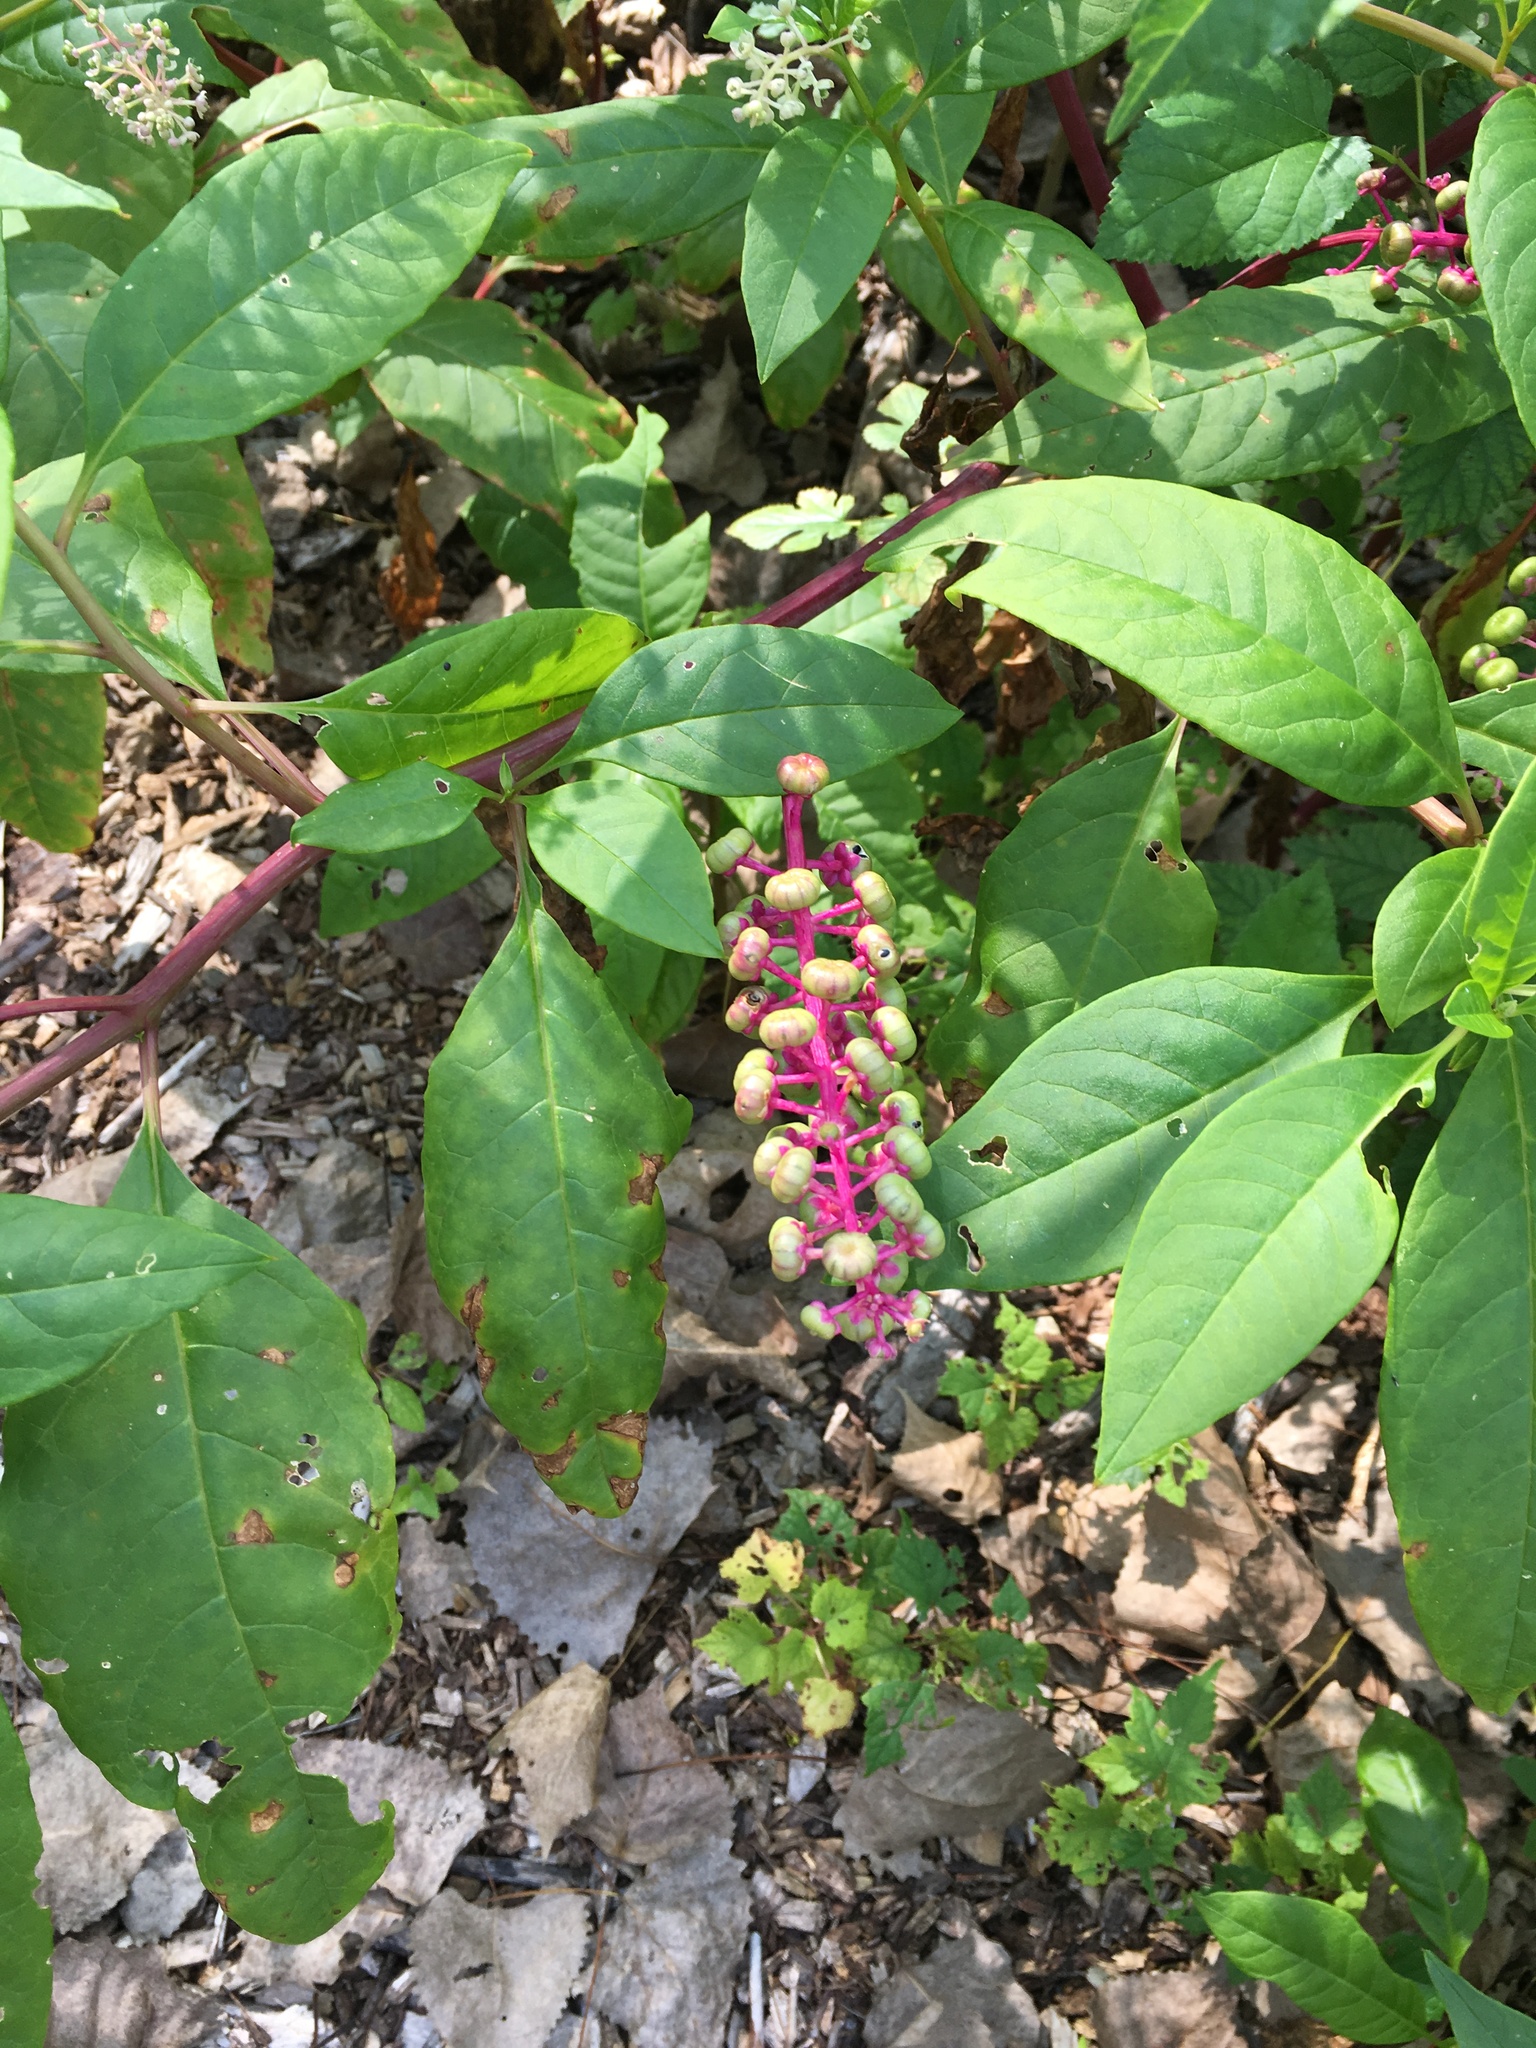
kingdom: Plantae
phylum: Tracheophyta
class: Magnoliopsida
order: Caryophyllales
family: Phytolaccaceae
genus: Phytolacca
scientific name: Phytolacca americana
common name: American pokeweed
